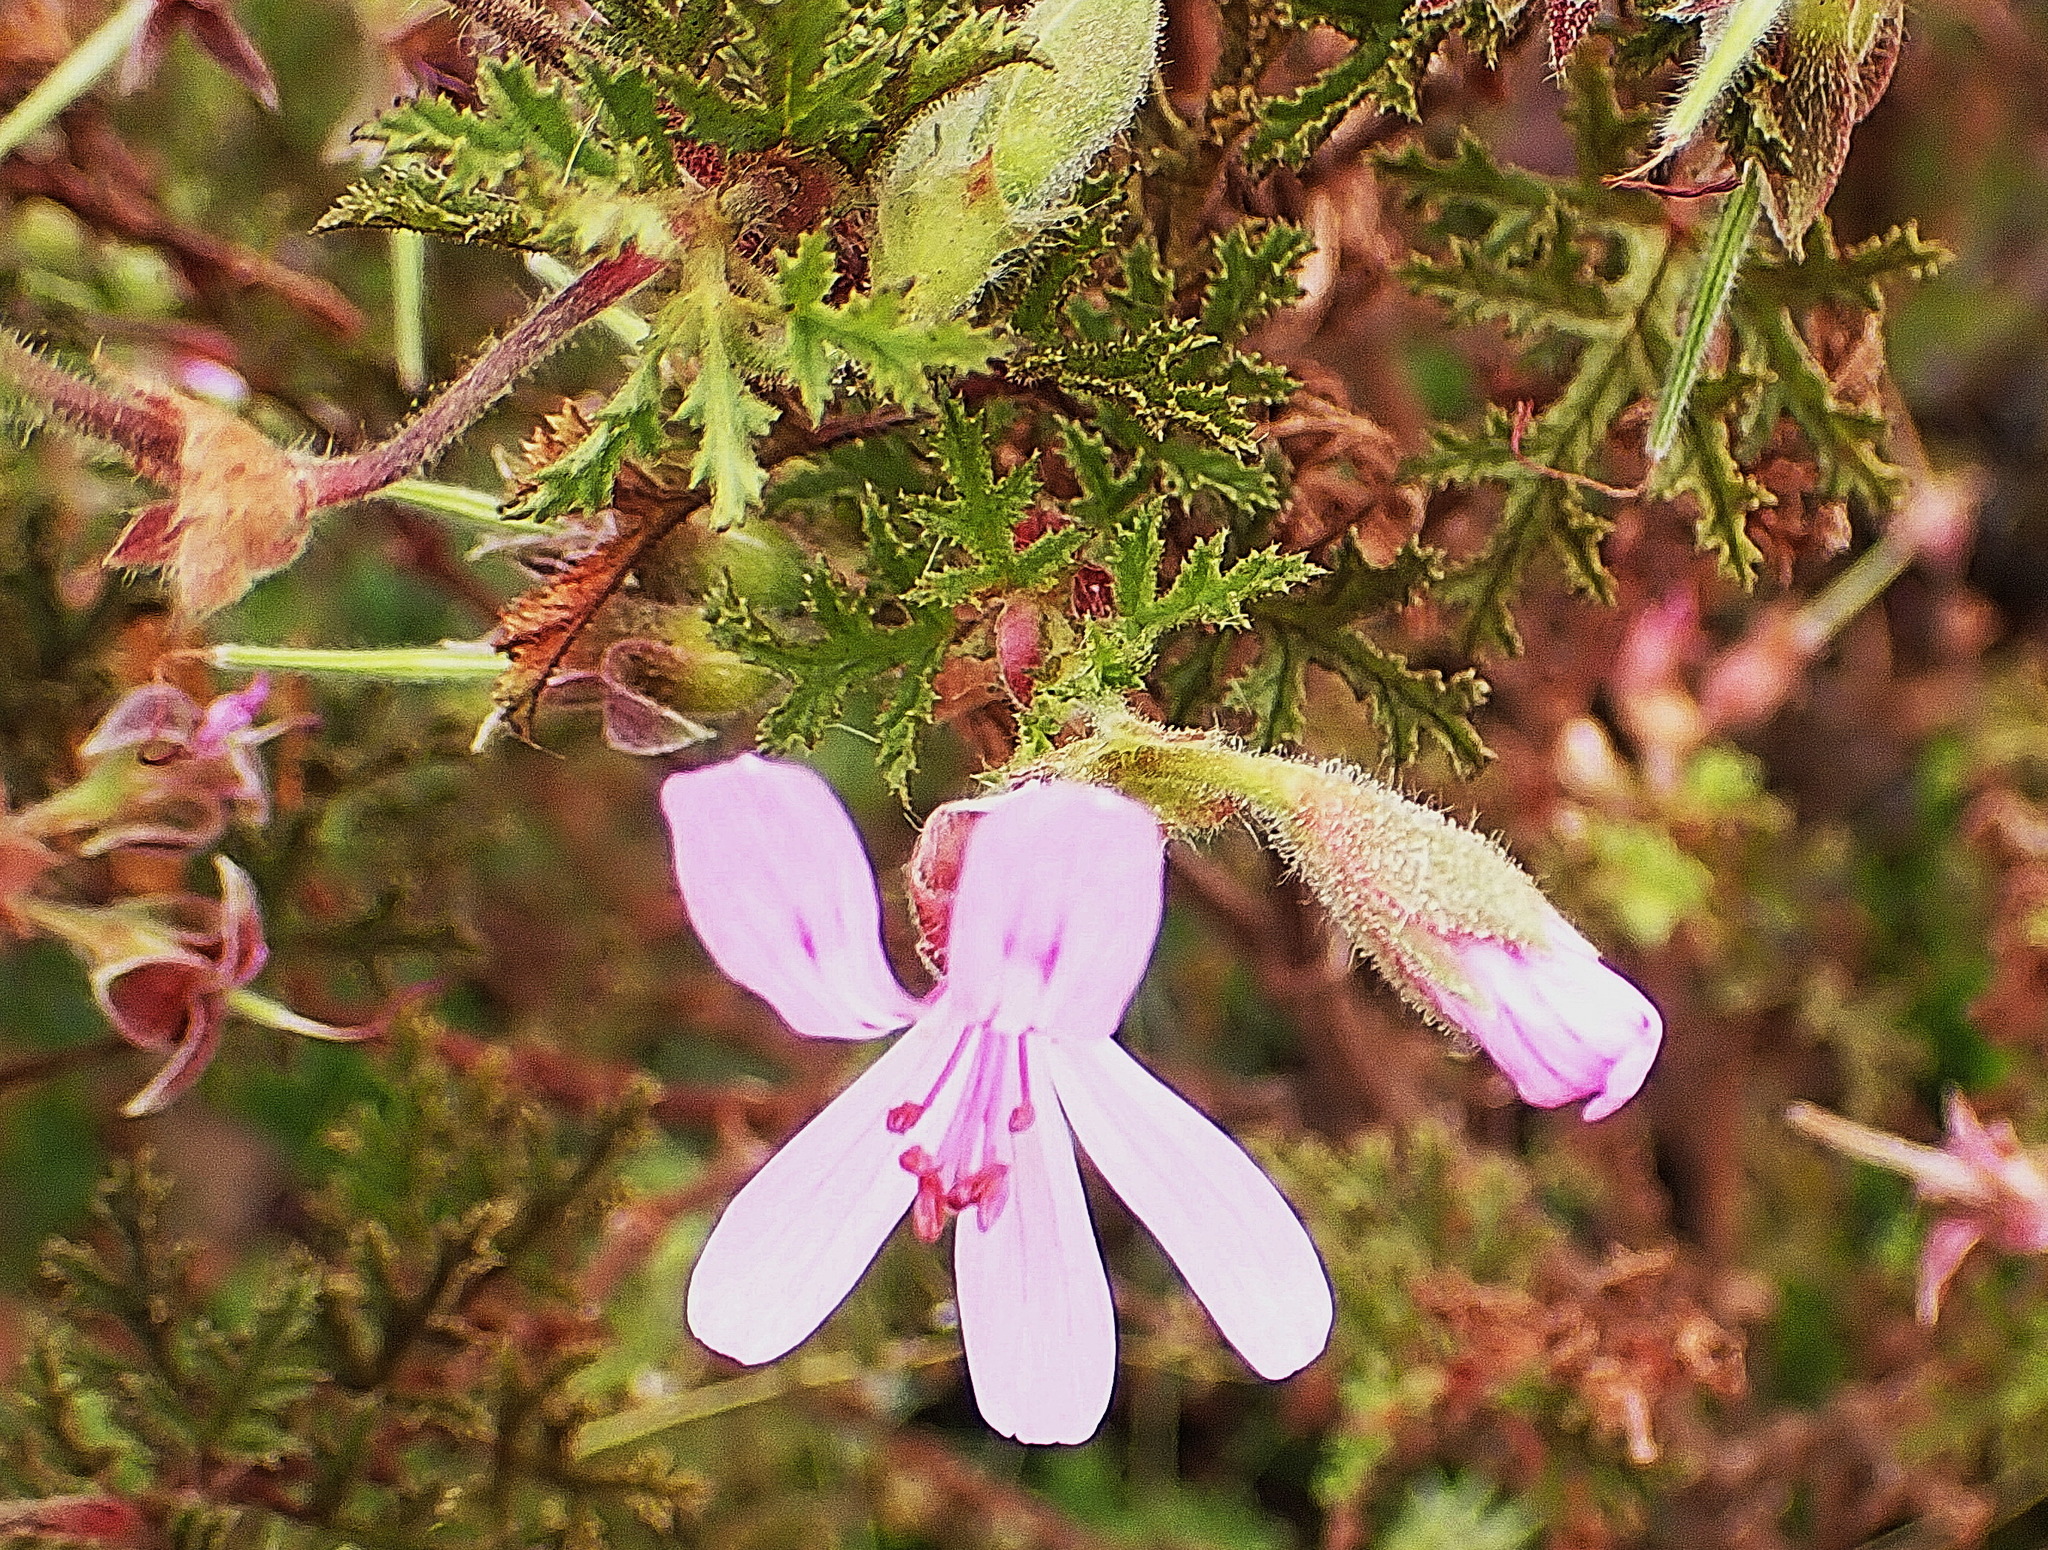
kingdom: Plantae
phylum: Tracheophyta
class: Magnoliopsida
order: Geraniales
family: Geraniaceae
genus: Pelargonium
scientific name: Pelargonium quercifolium
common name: Oakleaf geranium
